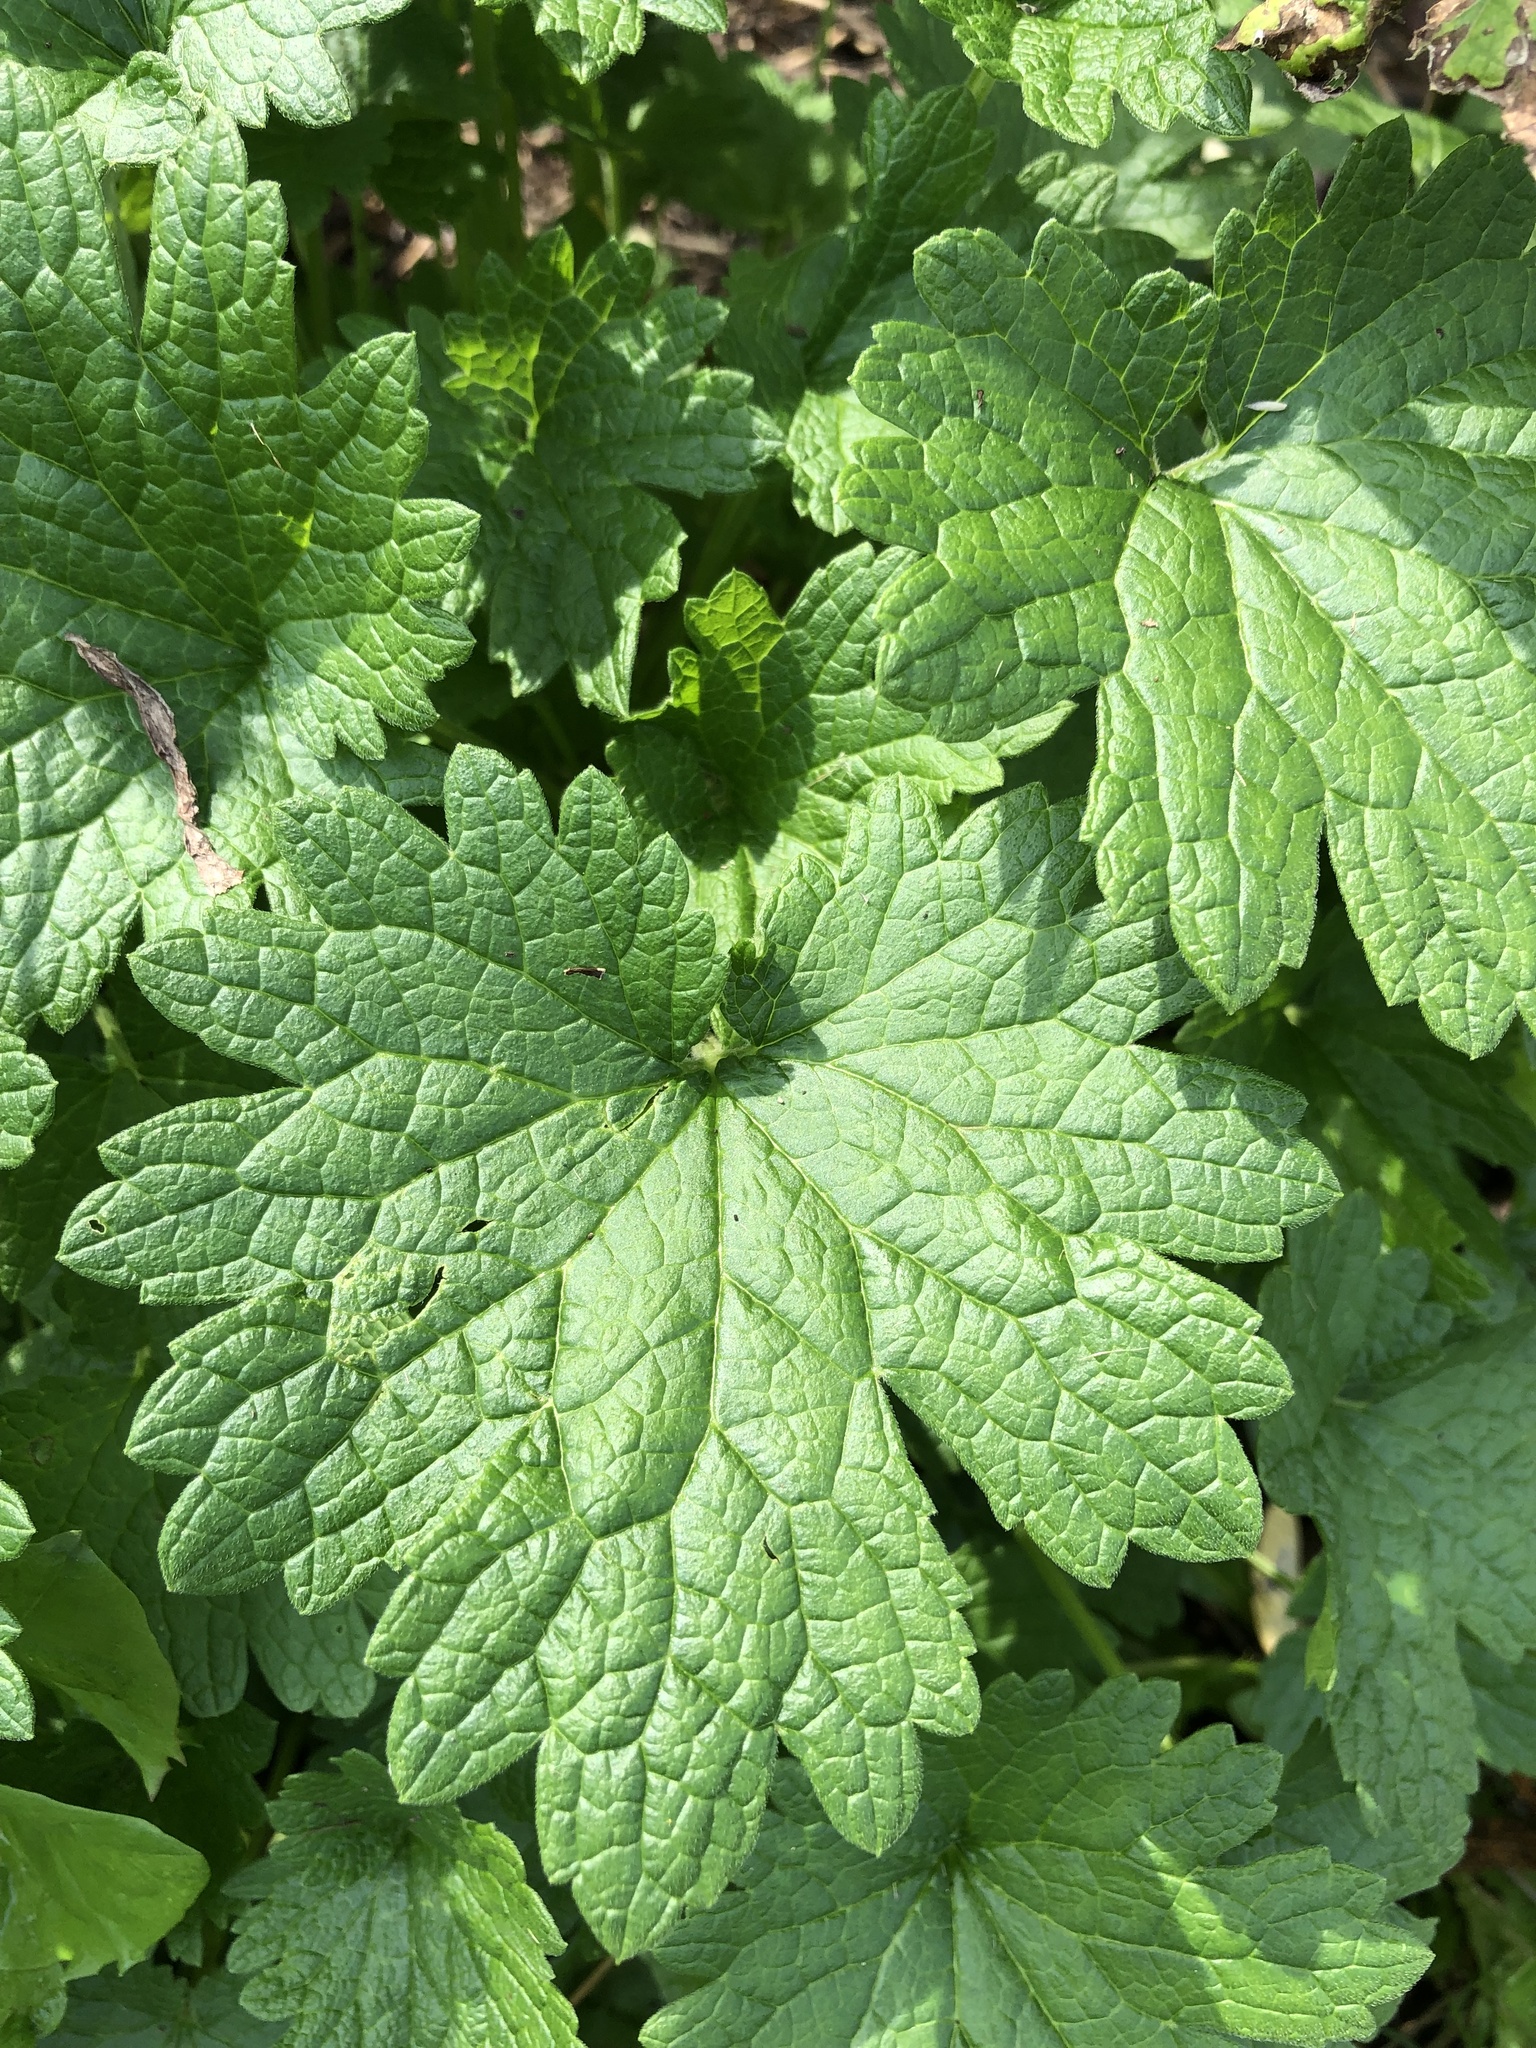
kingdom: Plantae
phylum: Tracheophyta
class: Magnoliopsida
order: Lamiales
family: Lamiaceae
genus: Leonurus
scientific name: Leonurus cardiaca
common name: Motherwort
